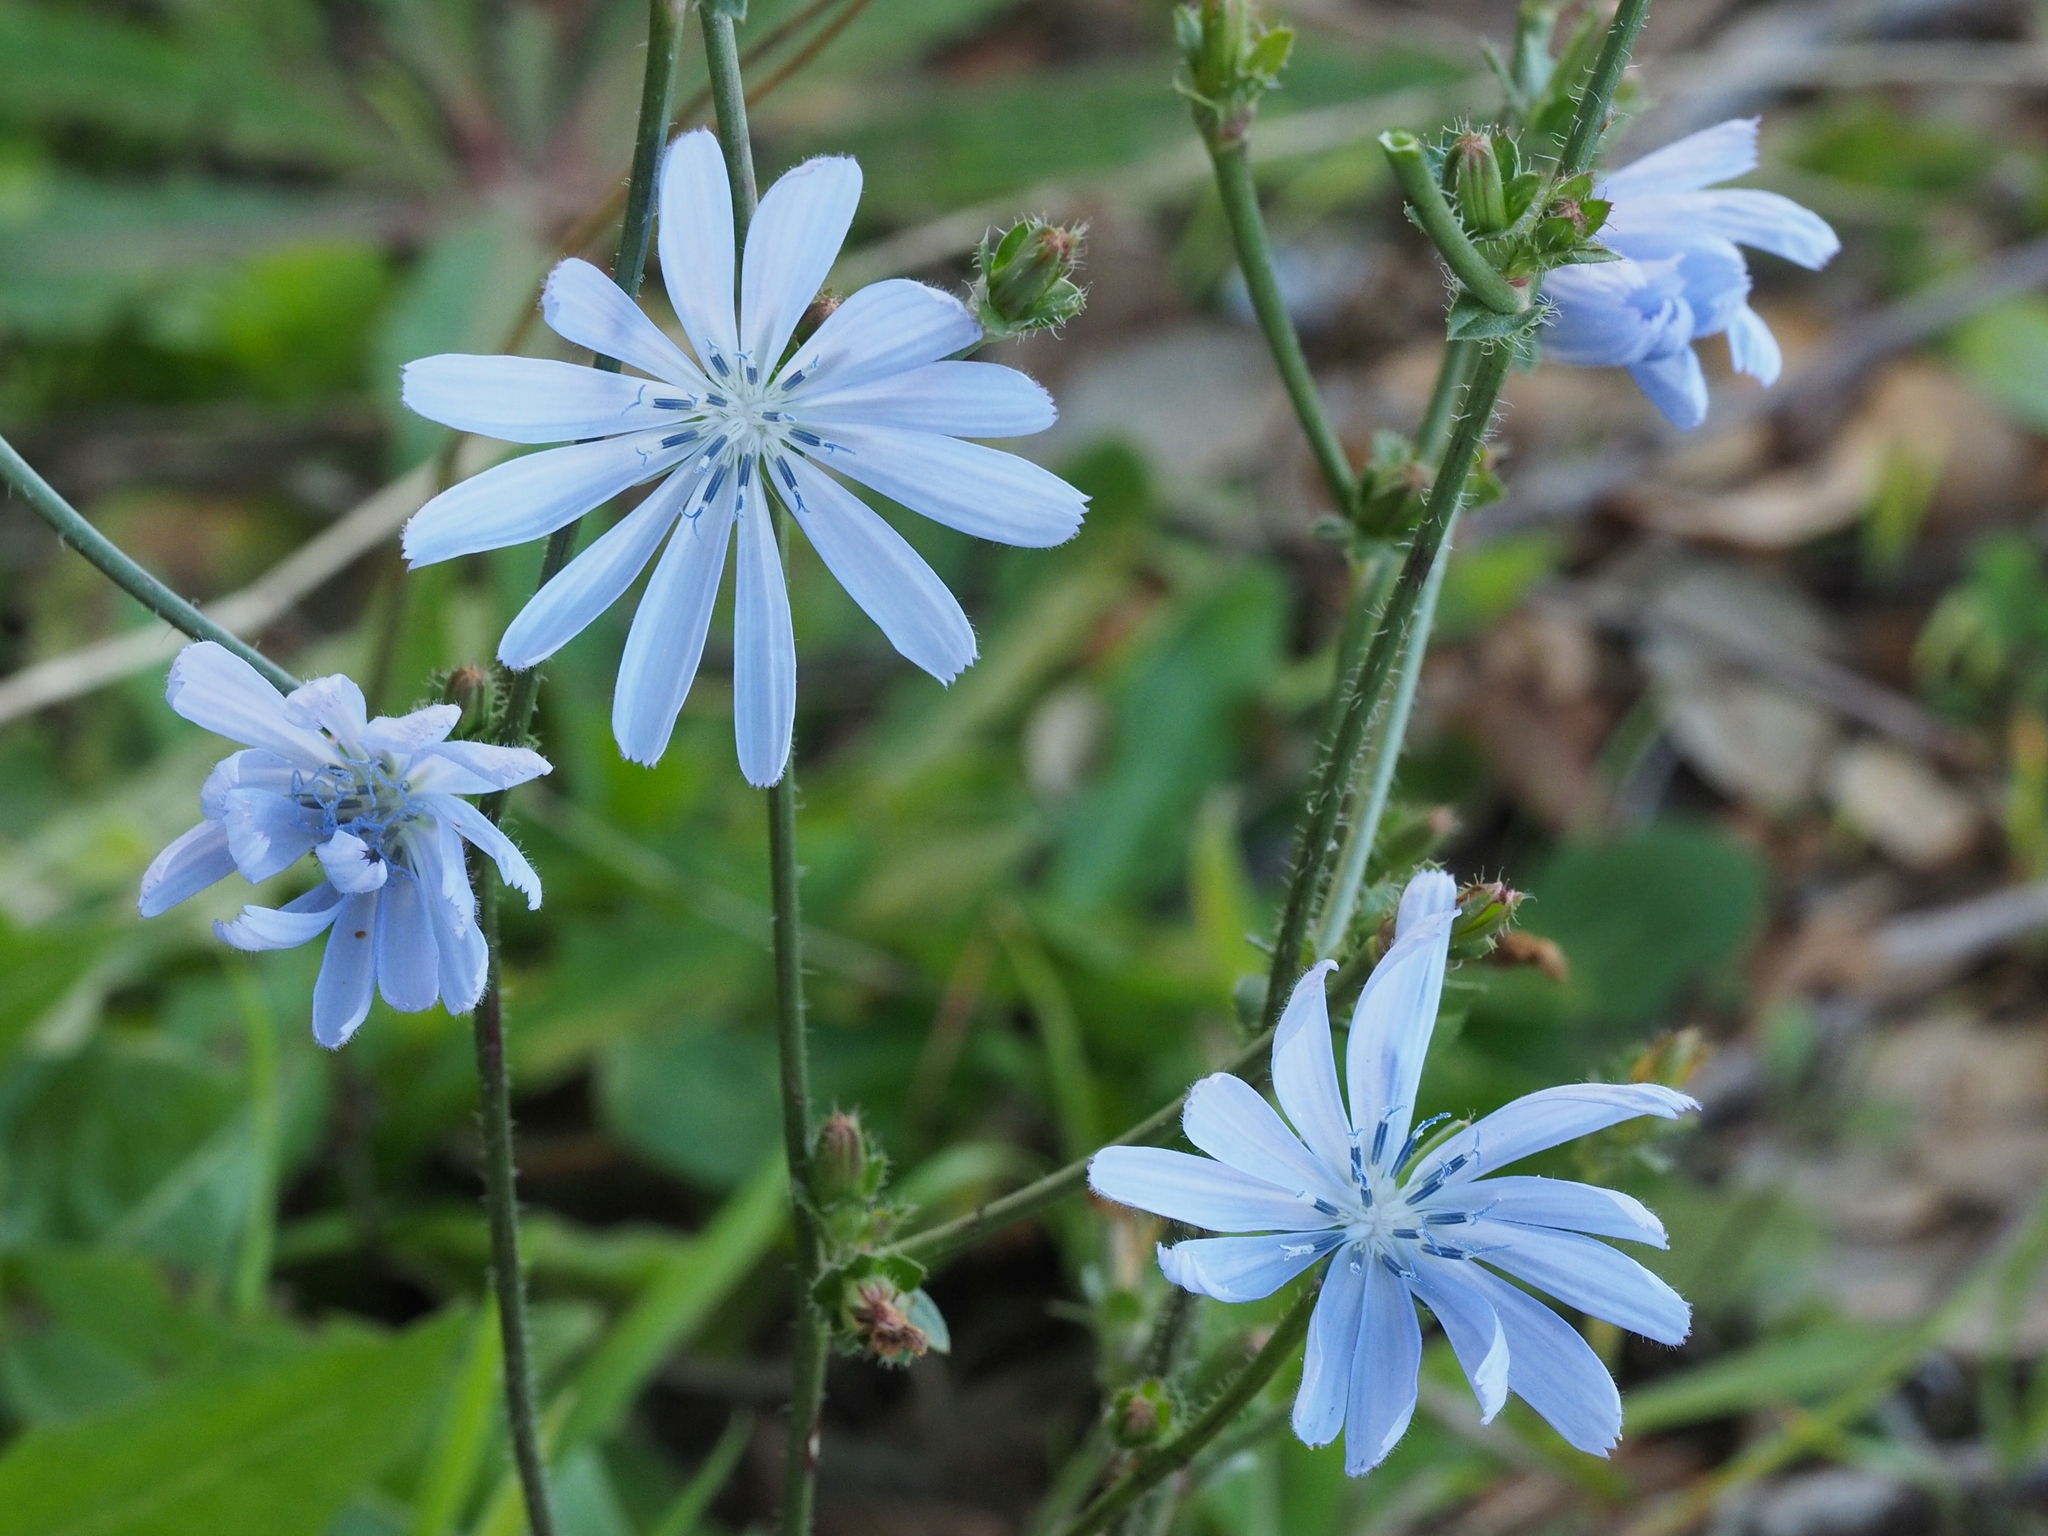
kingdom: Plantae
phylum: Tracheophyta
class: Magnoliopsida
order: Asterales
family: Asteraceae
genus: Cichorium
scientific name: Cichorium intybus
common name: Chicory
